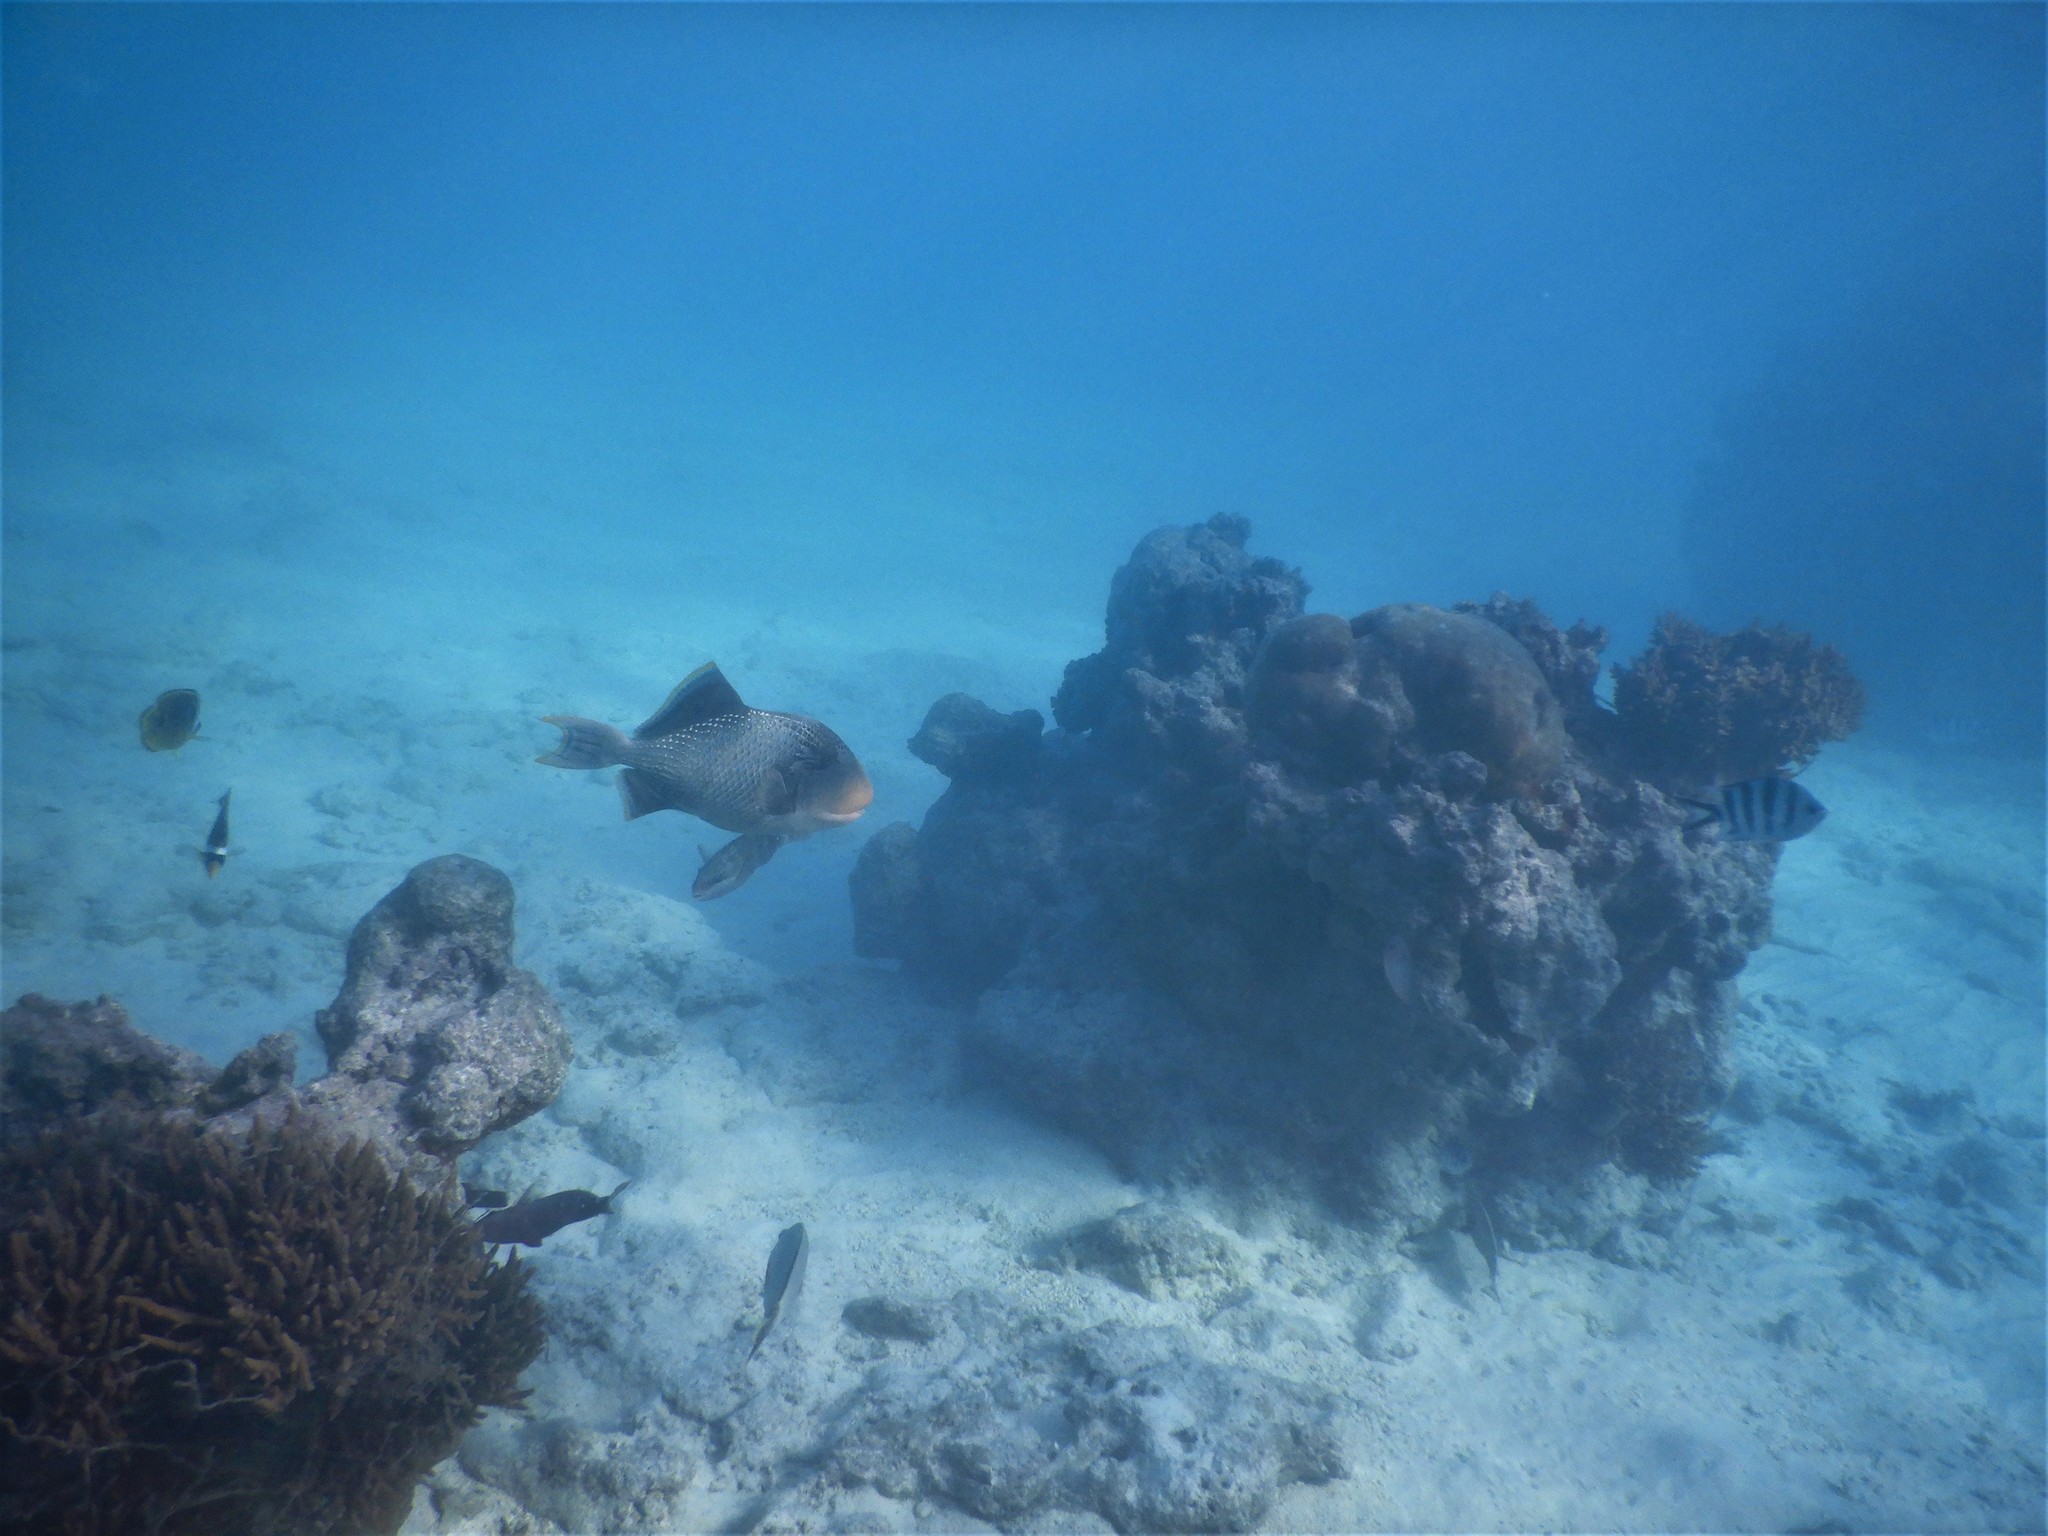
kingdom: Animalia
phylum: Chordata
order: Tetraodontiformes
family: Balistidae
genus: Pseudobalistes
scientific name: Pseudobalistes flavimarginatus
